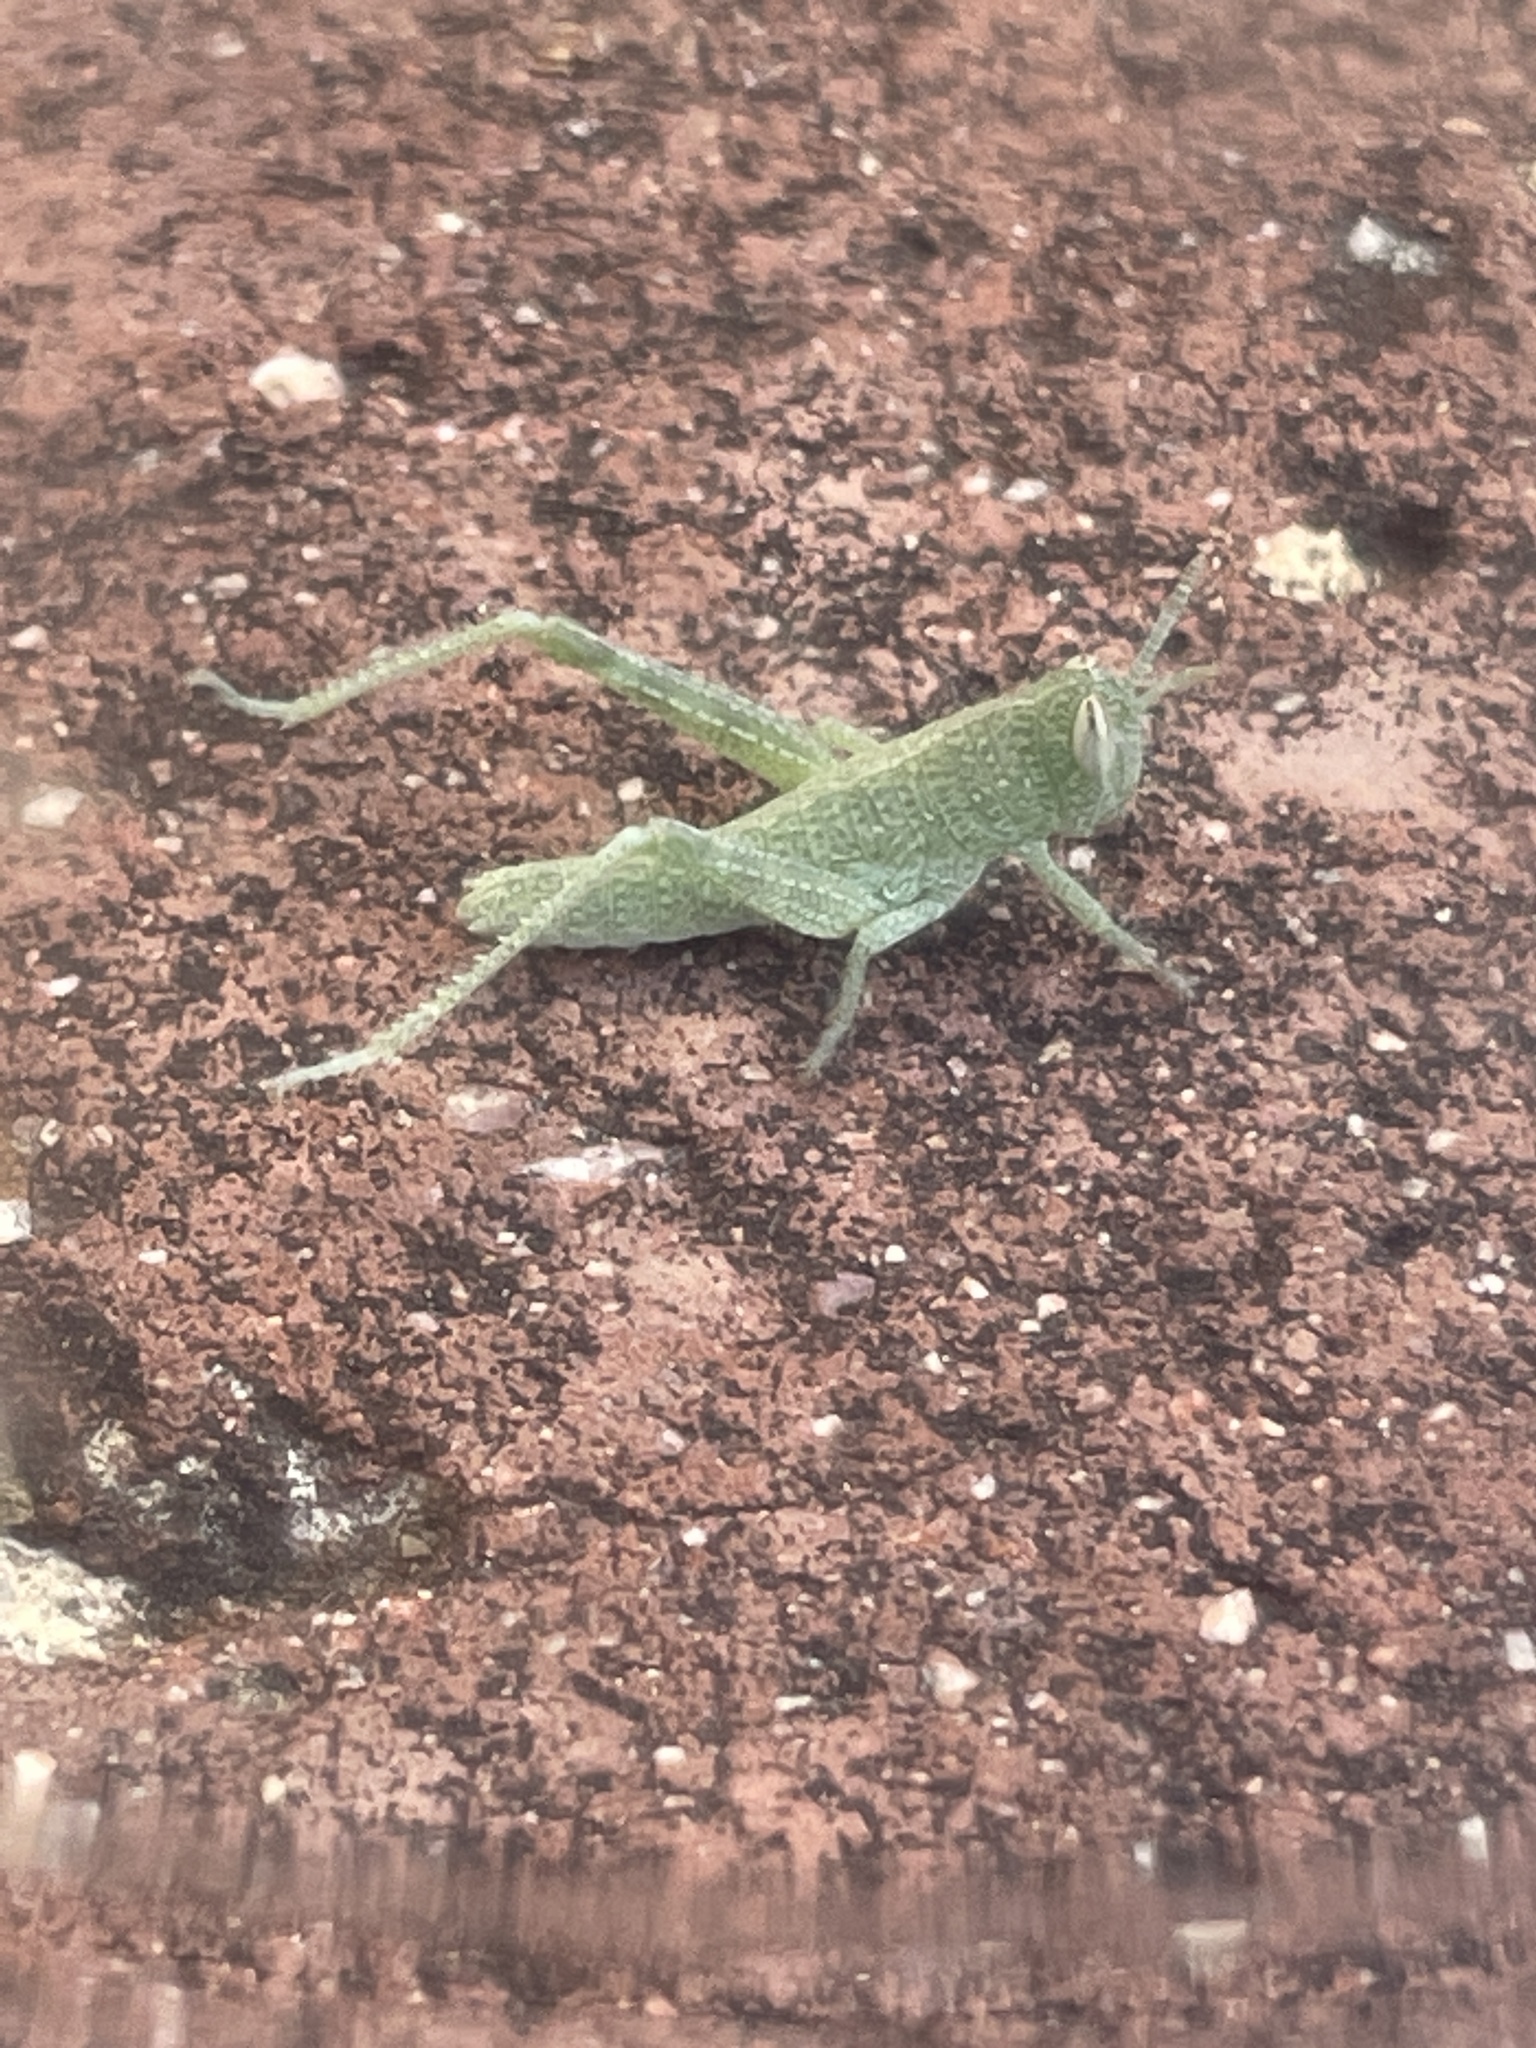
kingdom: Animalia
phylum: Arthropoda
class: Insecta
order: Orthoptera
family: Acrididae
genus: Schistocerca
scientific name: Schistocerca nitens
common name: Vagrant grasshopper
